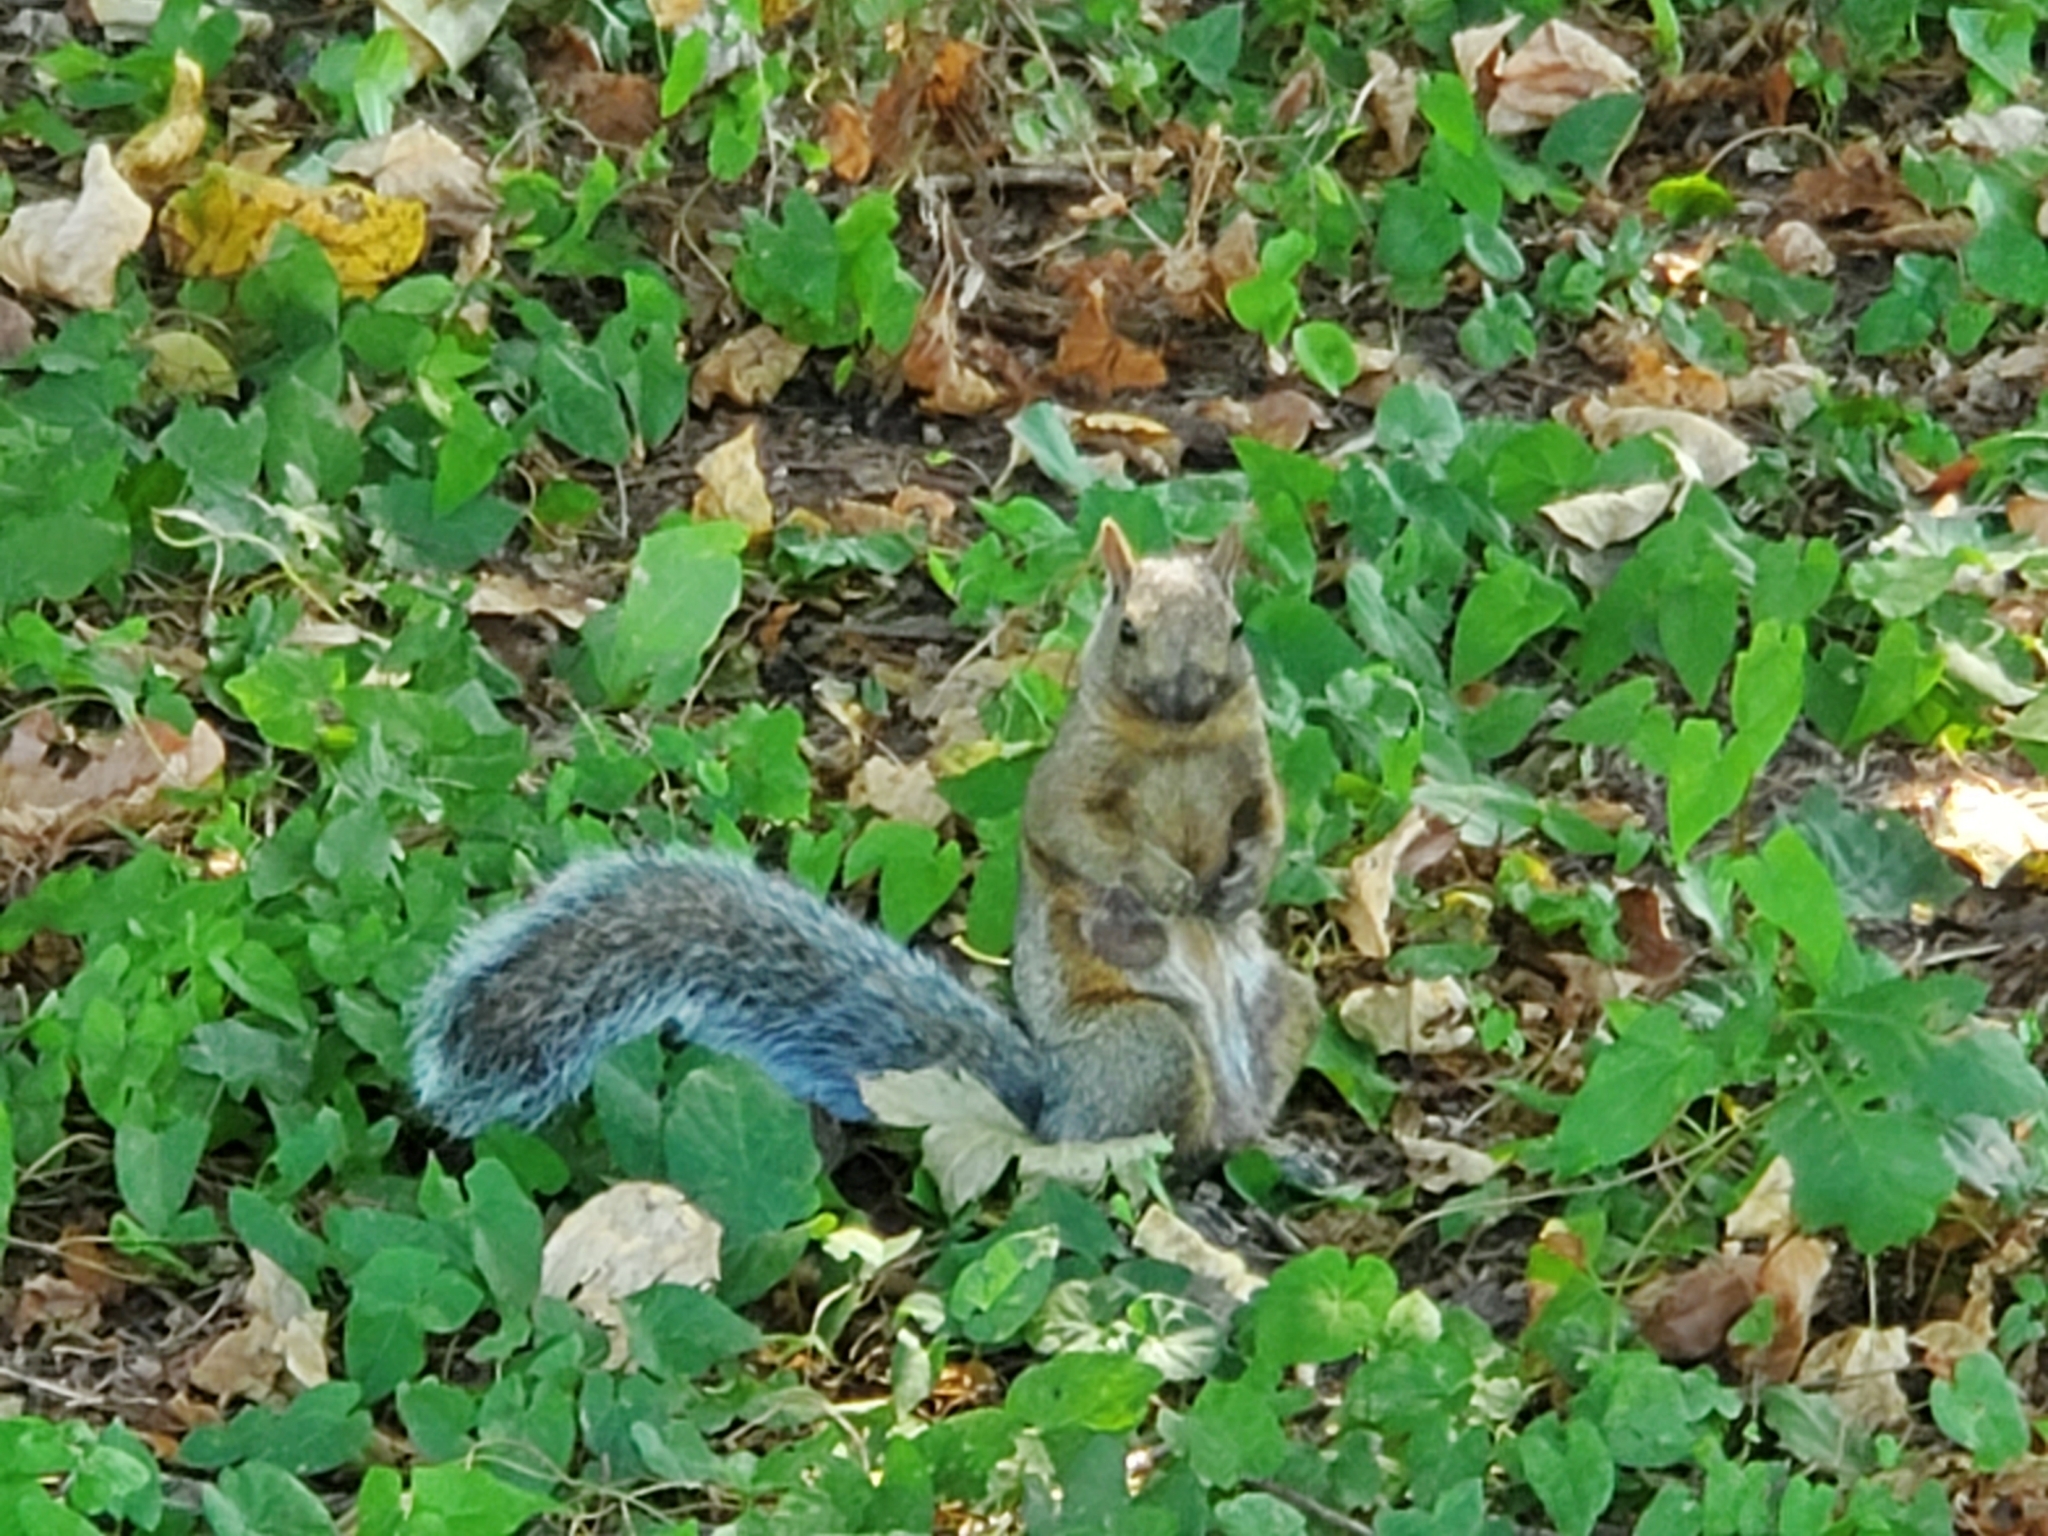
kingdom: Animalia
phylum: Chordata
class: Mammalia
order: Rodentia
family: Sciuridae
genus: Sciurus
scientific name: Sciurus carolinensis
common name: Eastern gray squirrel
